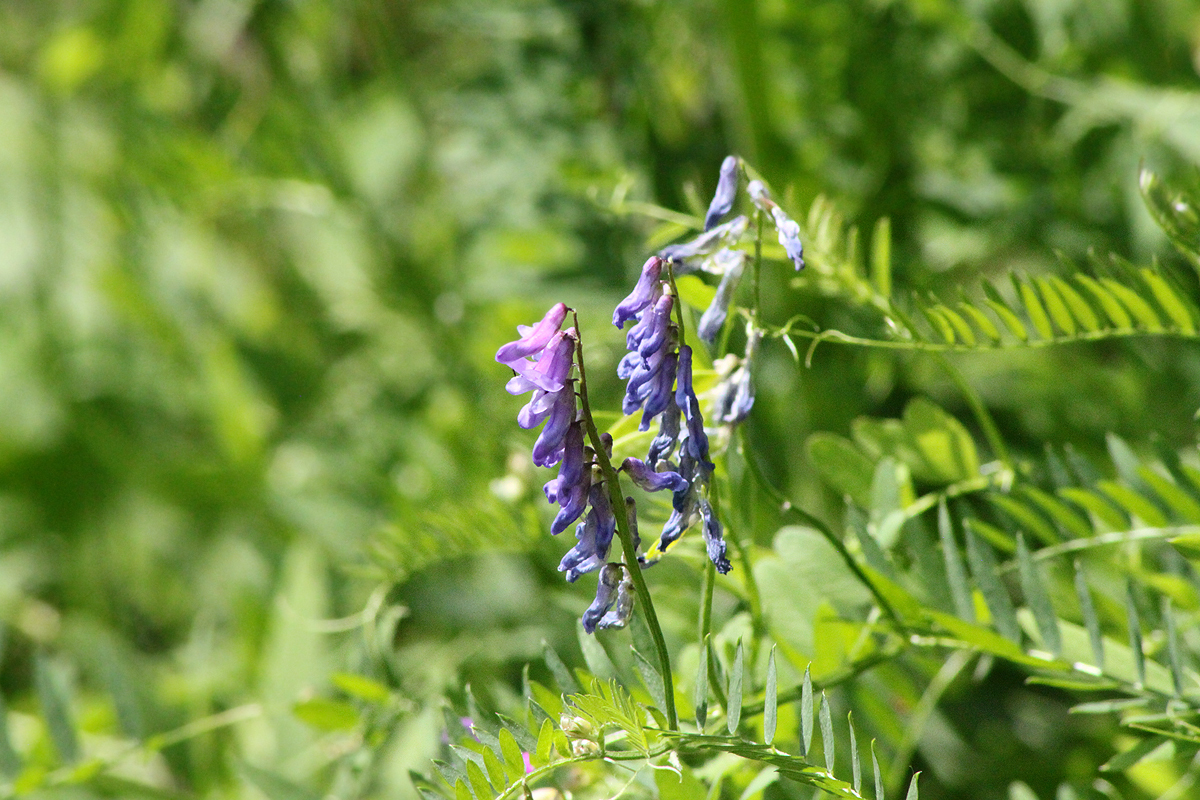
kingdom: Plantae
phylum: Tracheophyta
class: Magnoliopsida
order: Fabales
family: Fabaceae
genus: Vicia
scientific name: Vicia cracca
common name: Bird vetch
